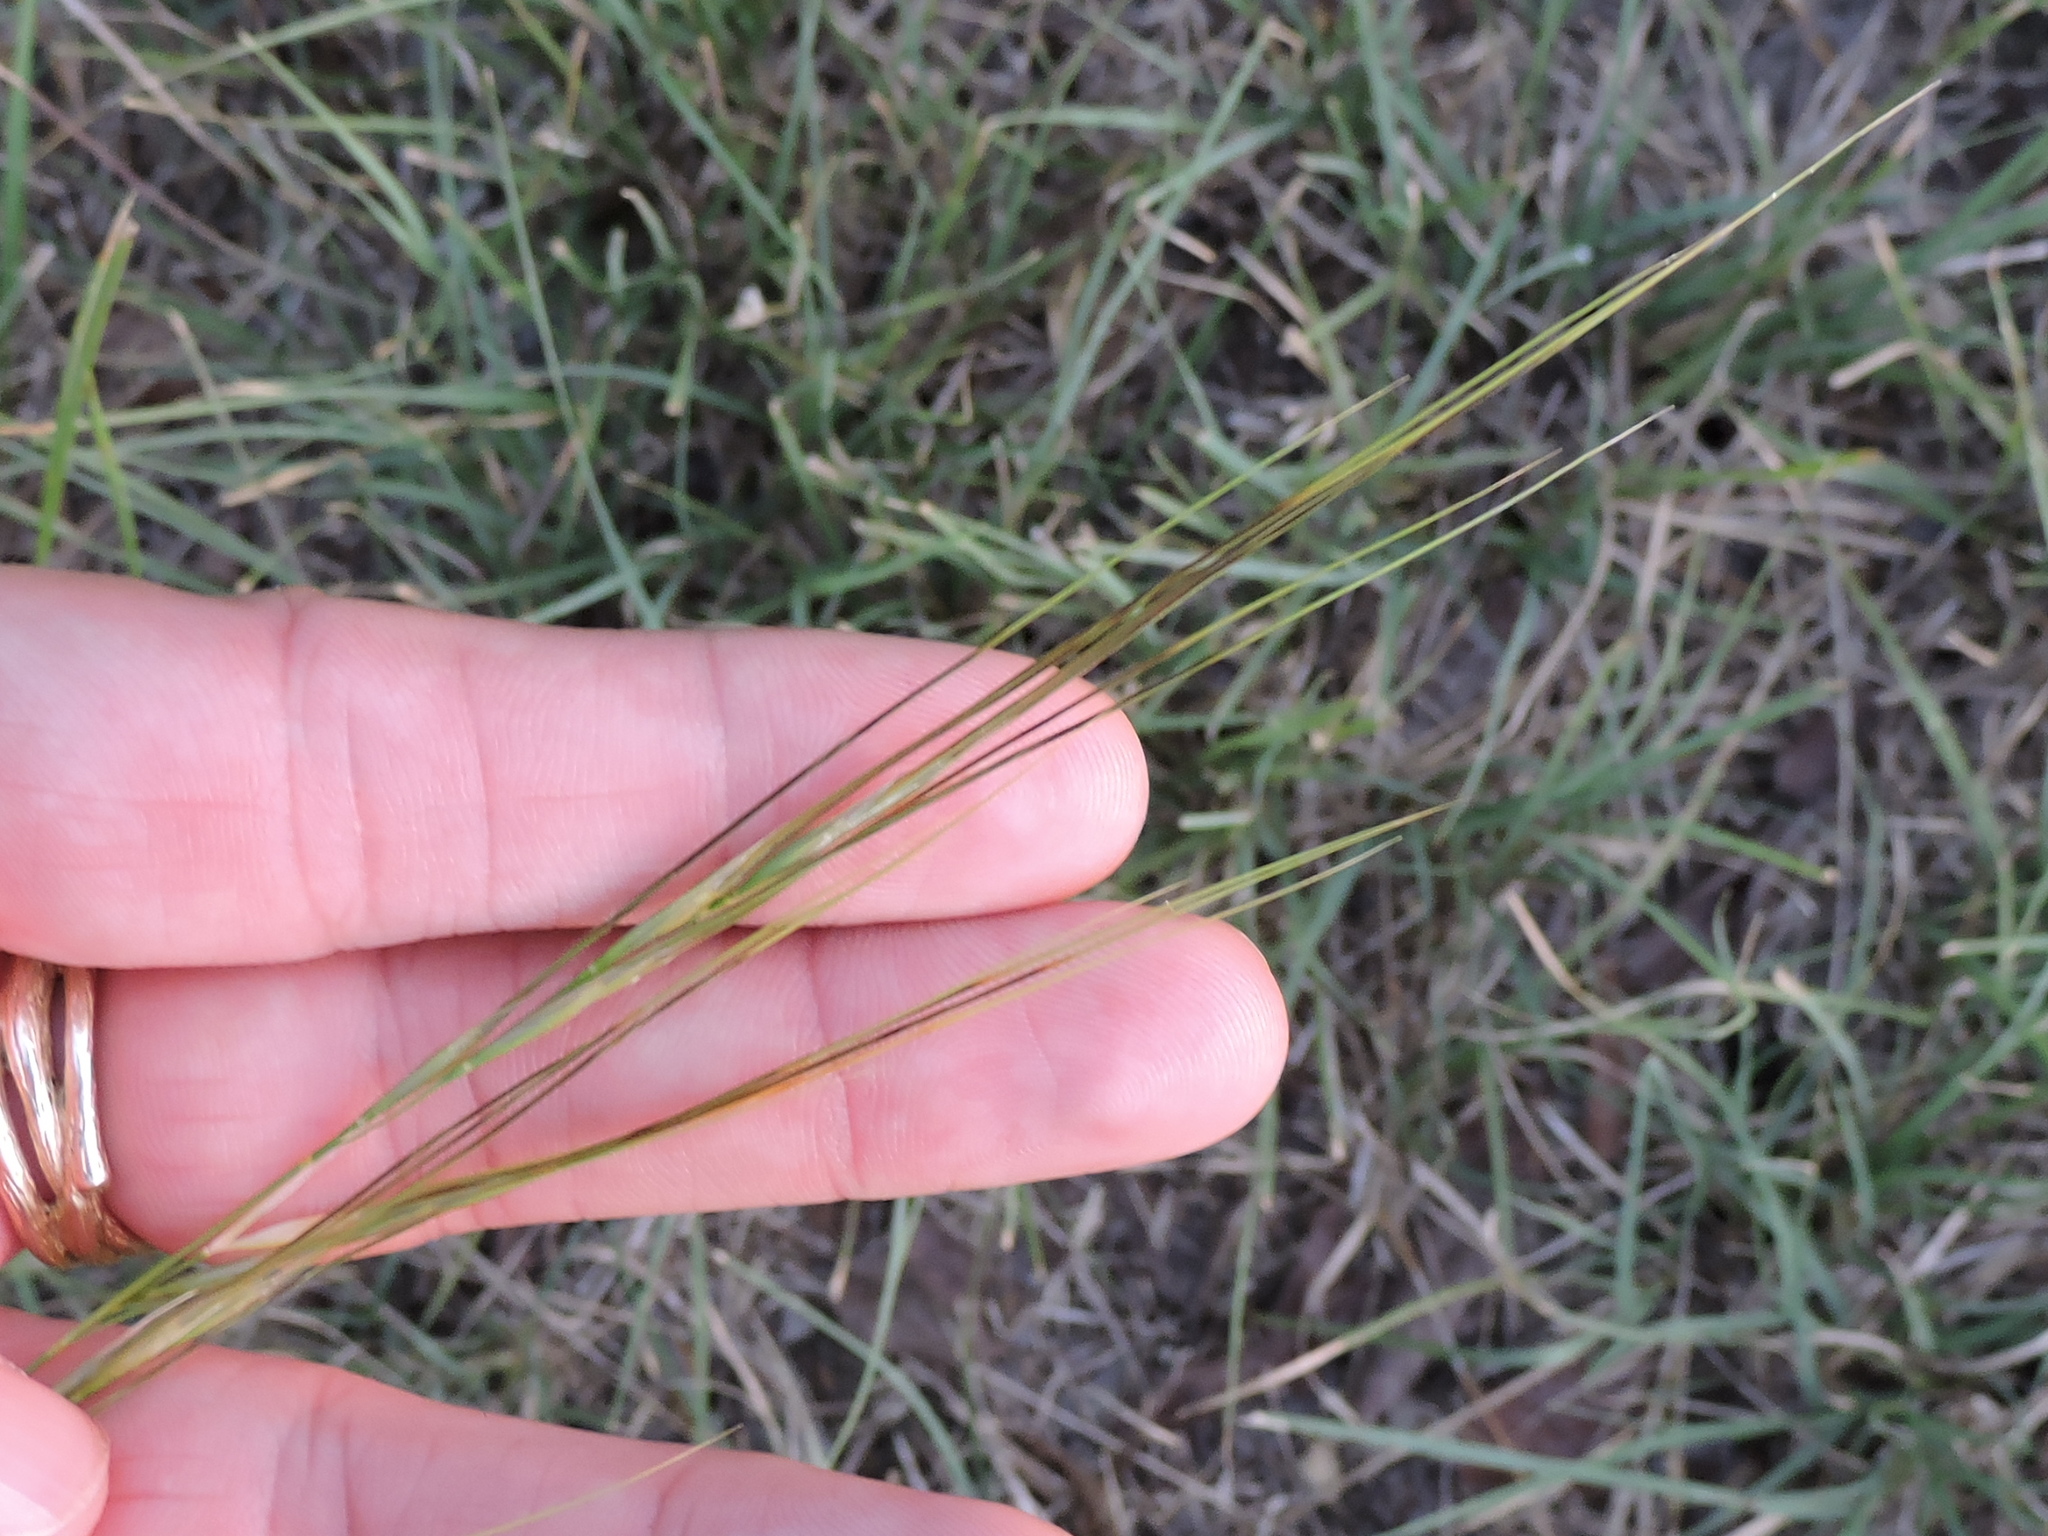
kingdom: Plantae
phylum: Tracheophyta
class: Liliopsida
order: Poales
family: Poaceae
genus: Nassella
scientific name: Nassella leucotricha
